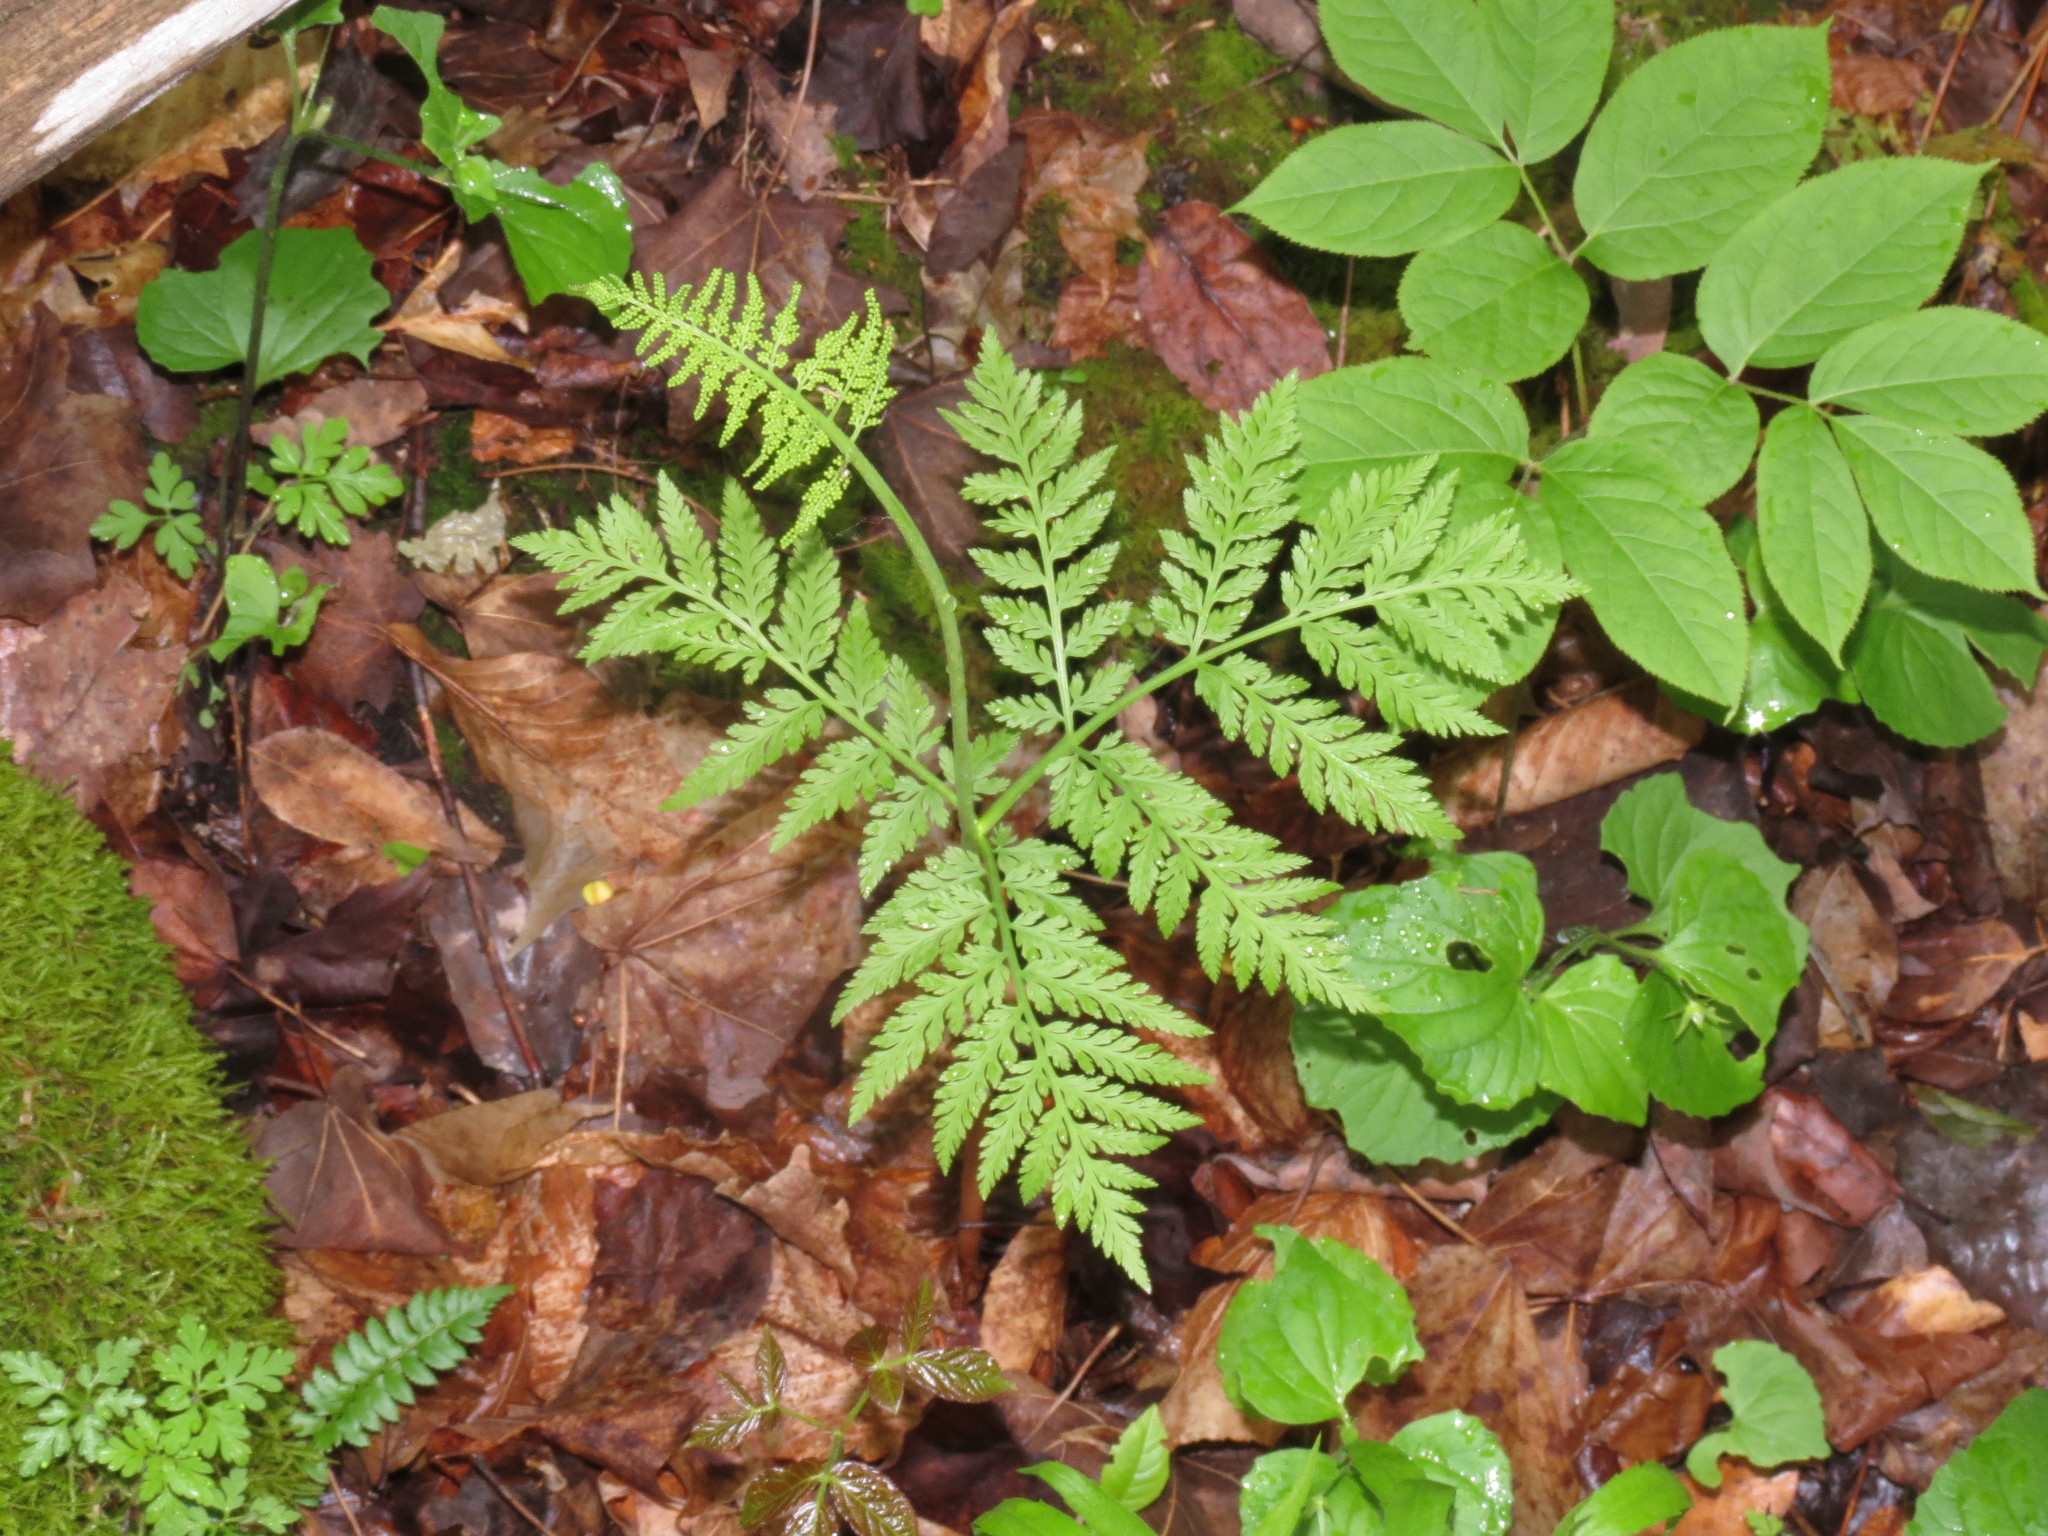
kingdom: Plantae
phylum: Tracheophyta
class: Polypodiopsida
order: Ophioglossales
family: Ophioglossaceae
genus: Botrypus
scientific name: Botrypus virginianus
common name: Common grapefern
